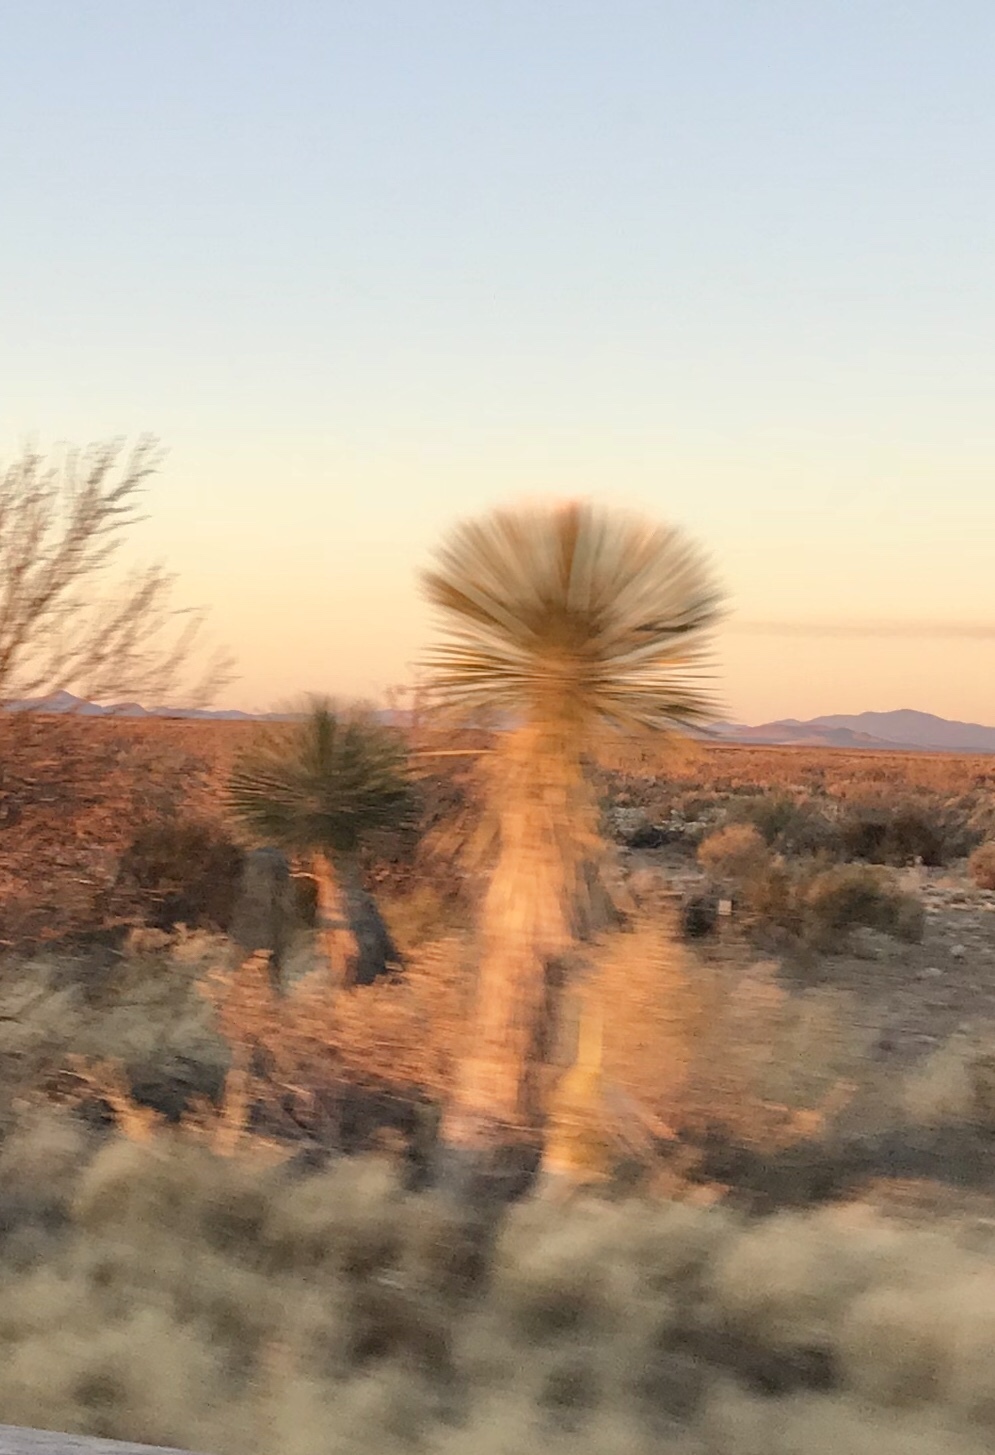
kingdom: Plantae
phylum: Tracheophyta
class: Liliopsida
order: Asparagales
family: Asparagaceae
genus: Yucca
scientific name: Yucca elata
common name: Palmella
